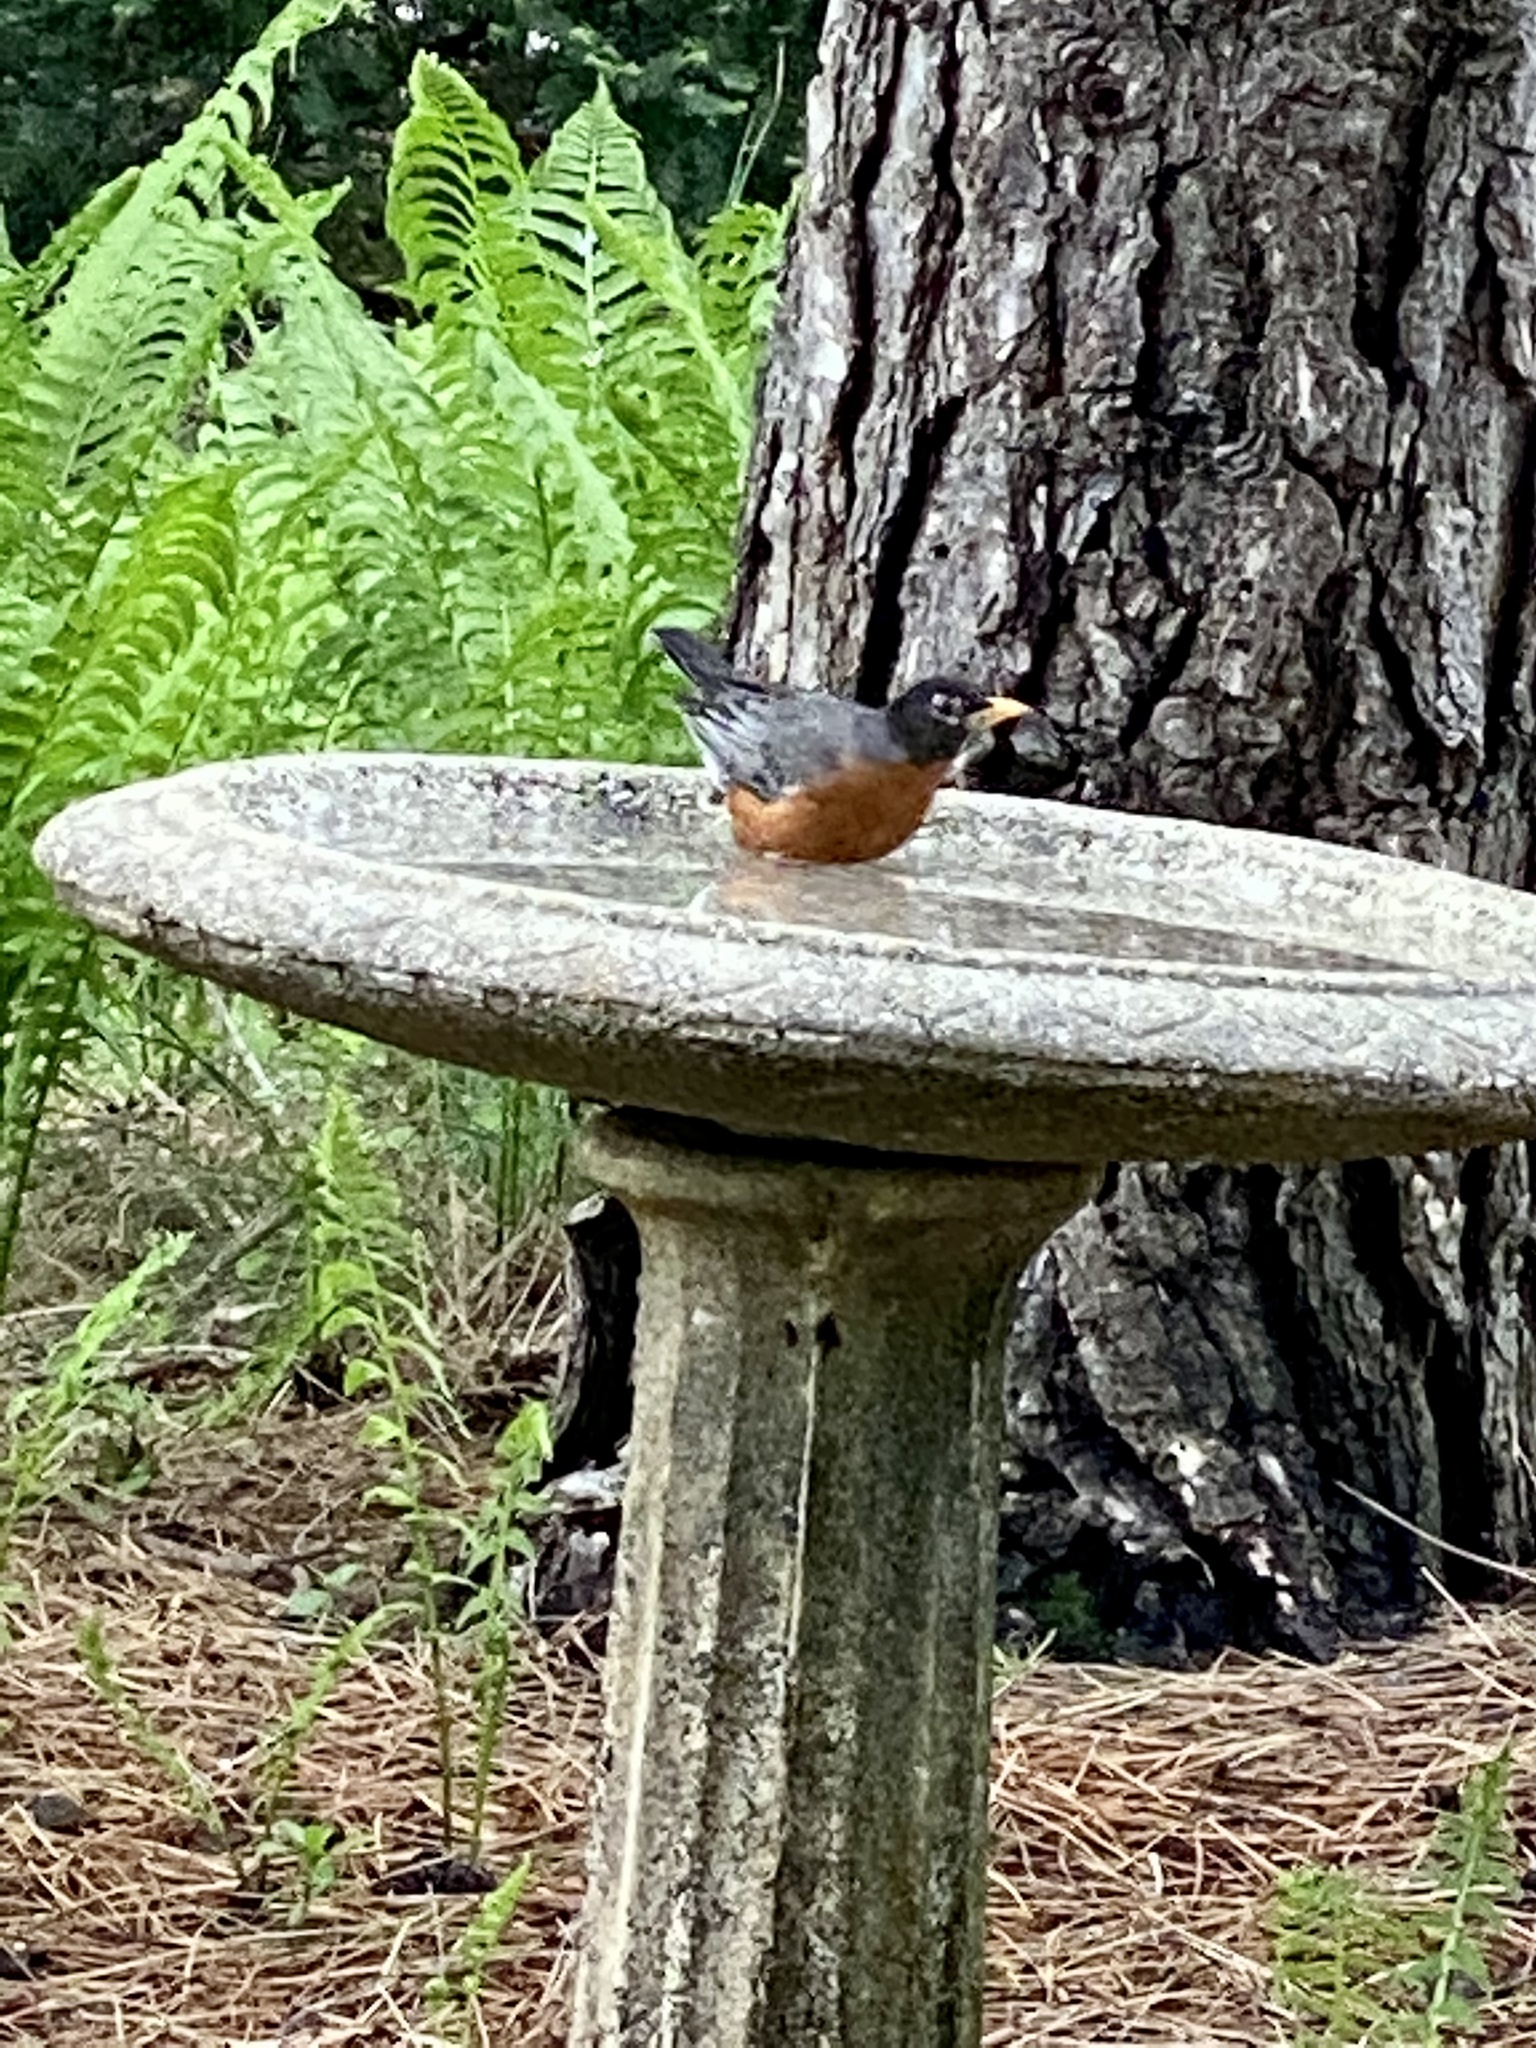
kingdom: Animalia
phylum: Chordata
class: Aves
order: Passeriformes
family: Turdidae
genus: Turdus
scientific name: Turdus migratorius
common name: American robin
